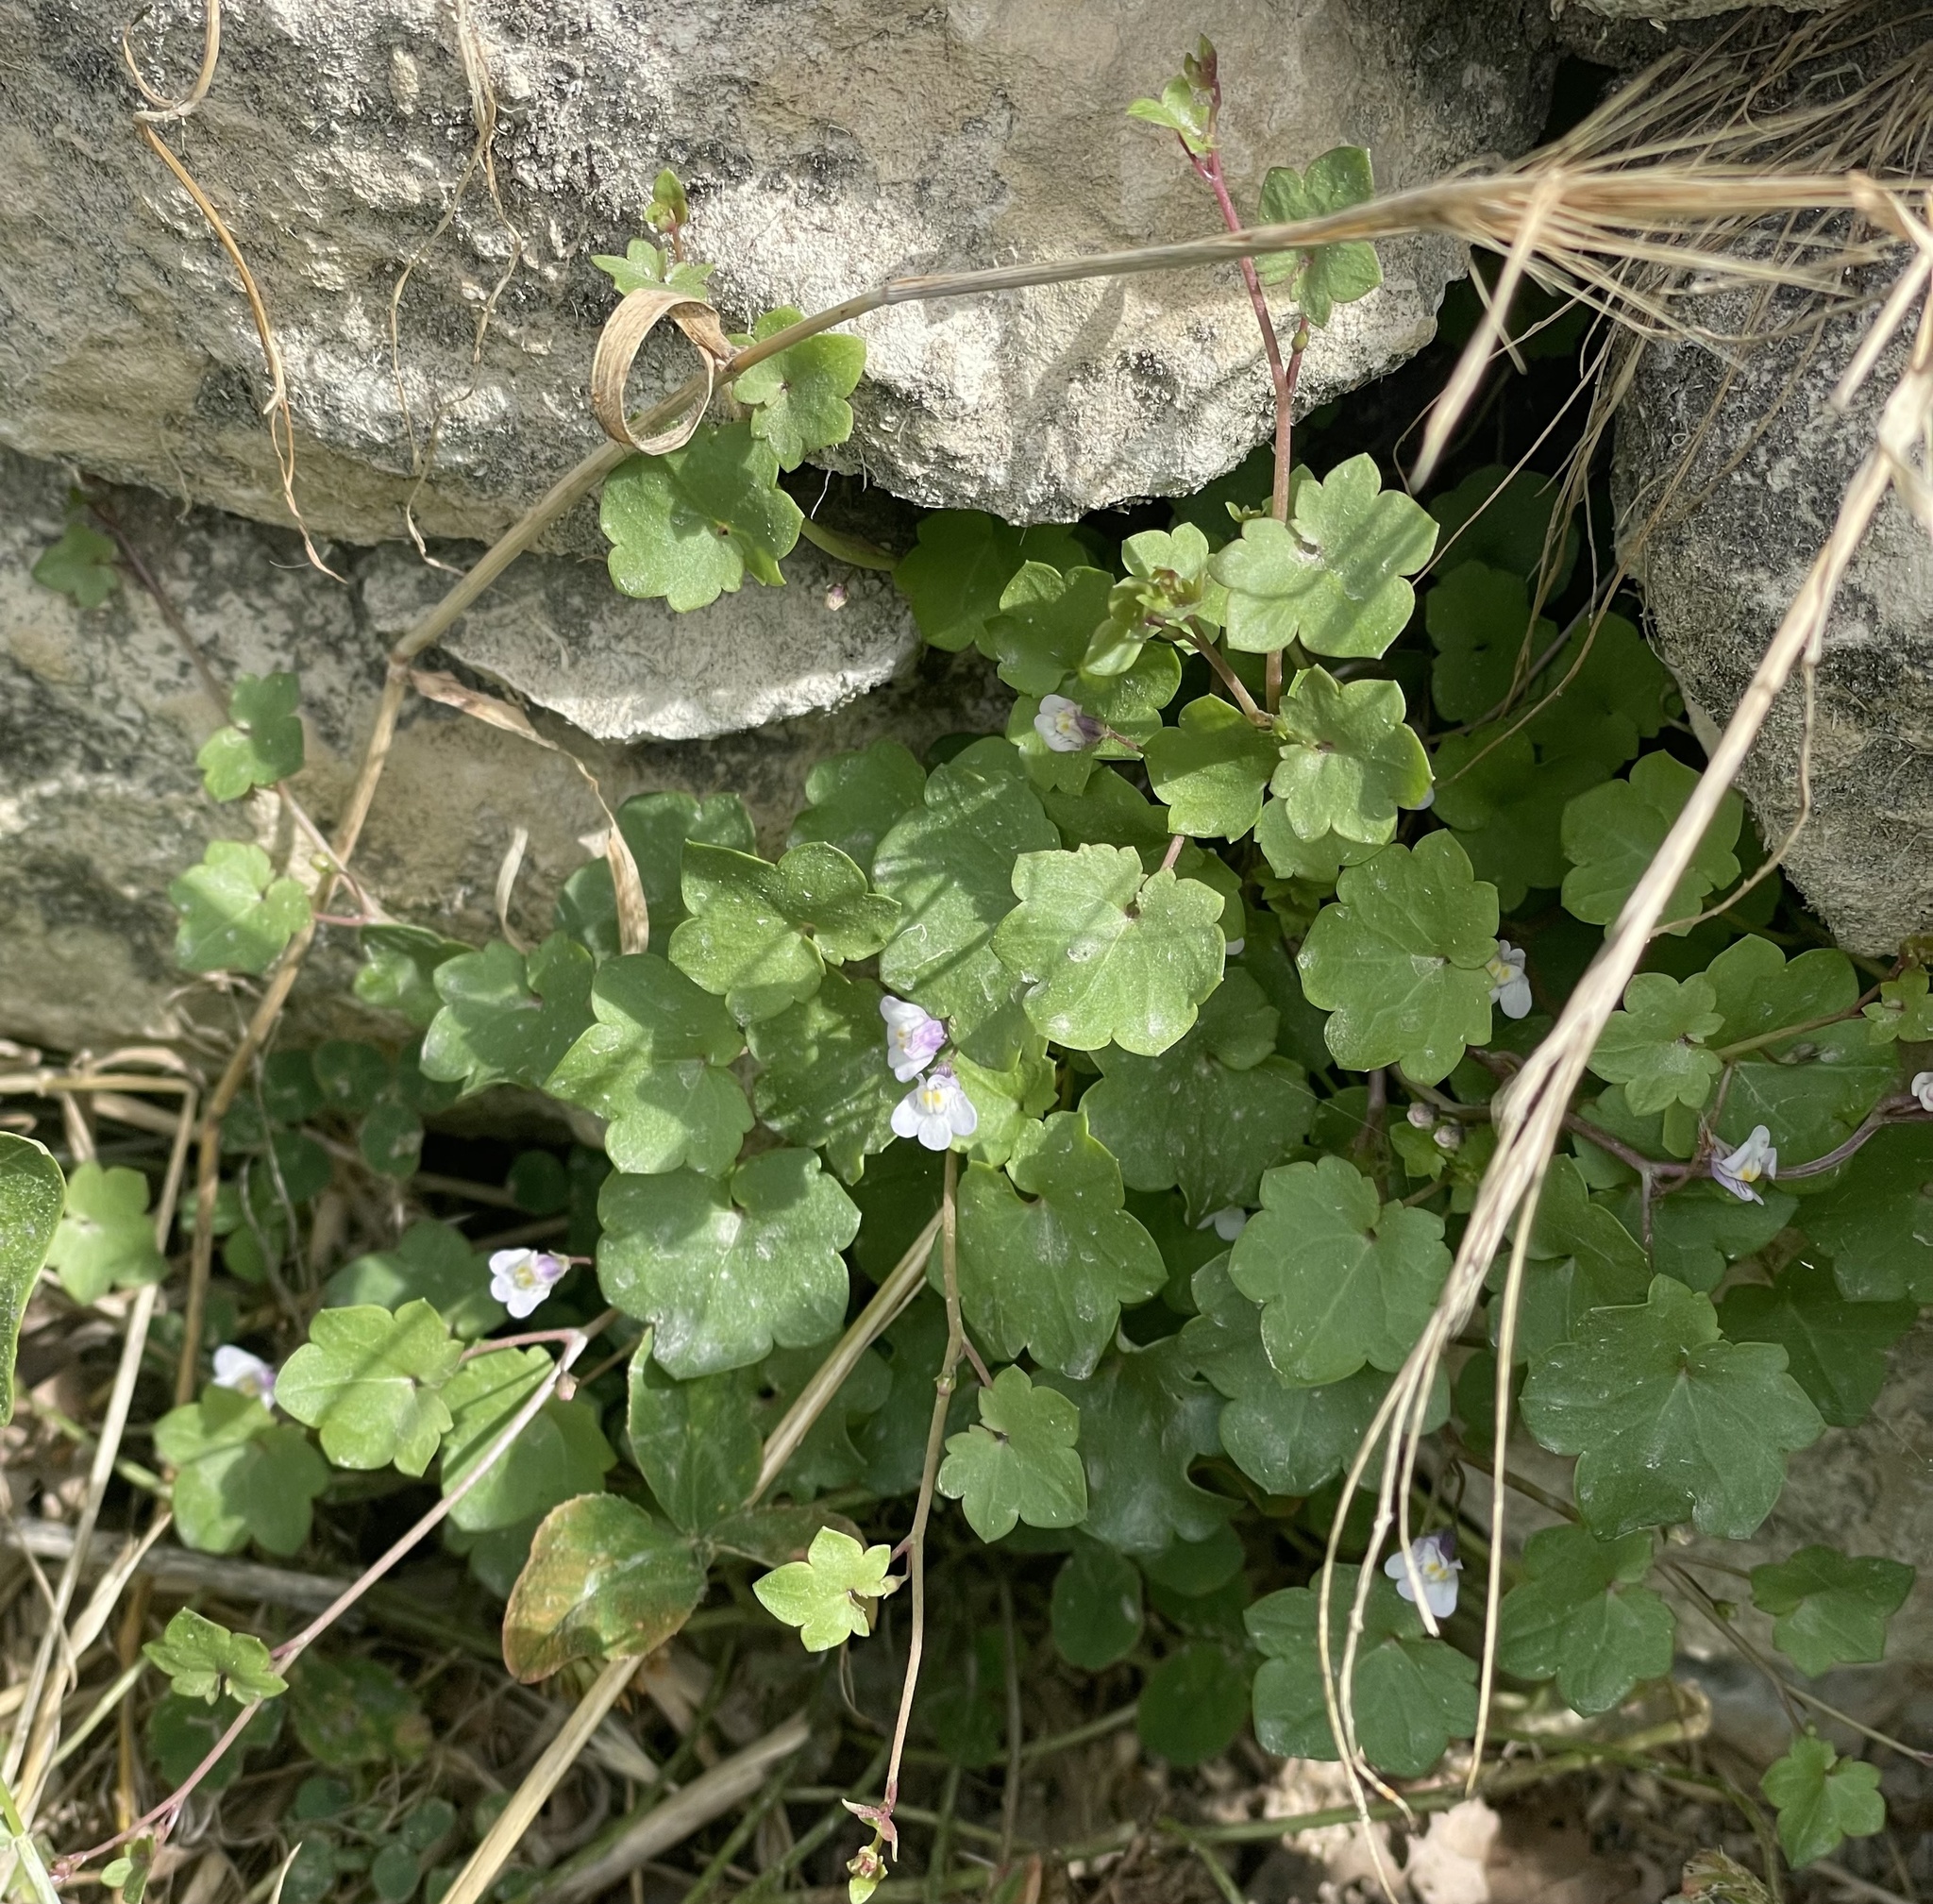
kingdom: Plantae
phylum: Tracheophyta
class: Magnoliopsida
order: Lamiales
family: Plantaginaceae
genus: Cymbalaria
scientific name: Cymbalaria muralis
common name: Ivy-leaved toadflax
